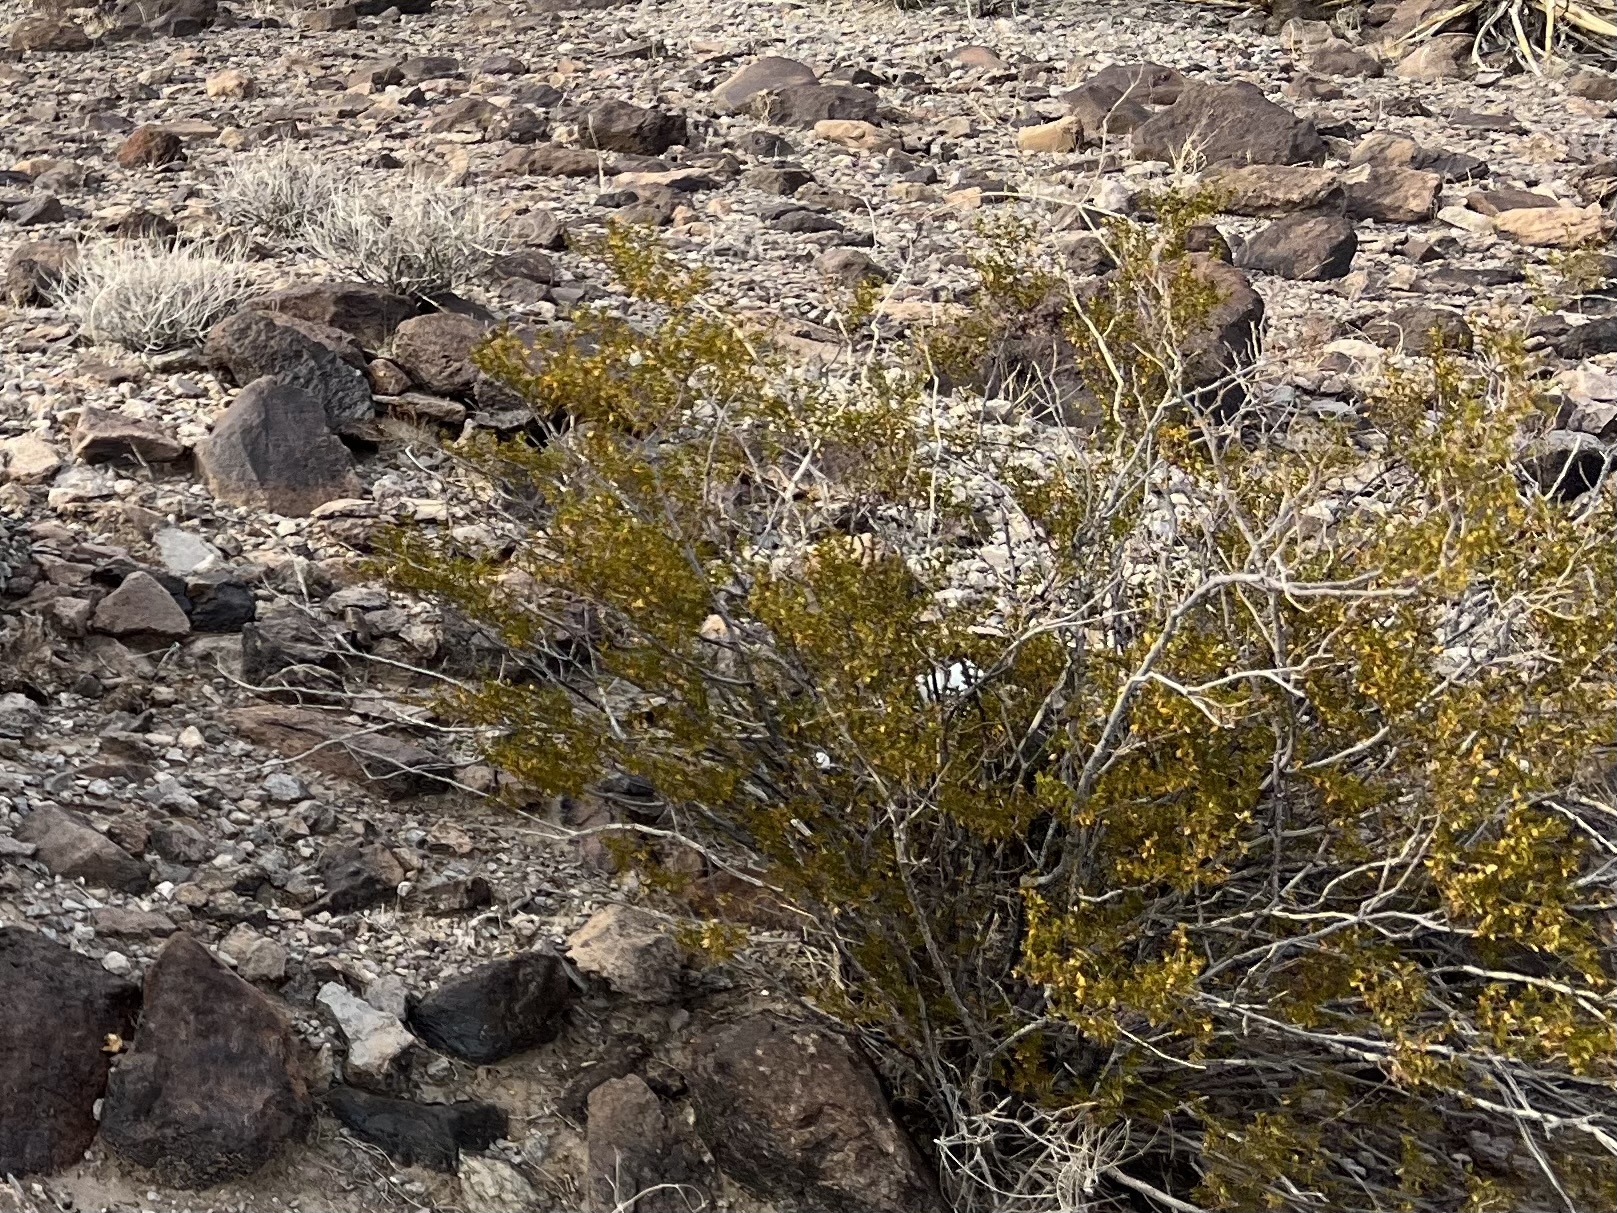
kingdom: Plantae
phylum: Tracheophyta
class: Magnoliopsida
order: Zygophyllales
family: Zygophyllaceae
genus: Larrea
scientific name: Larrea tridentata
